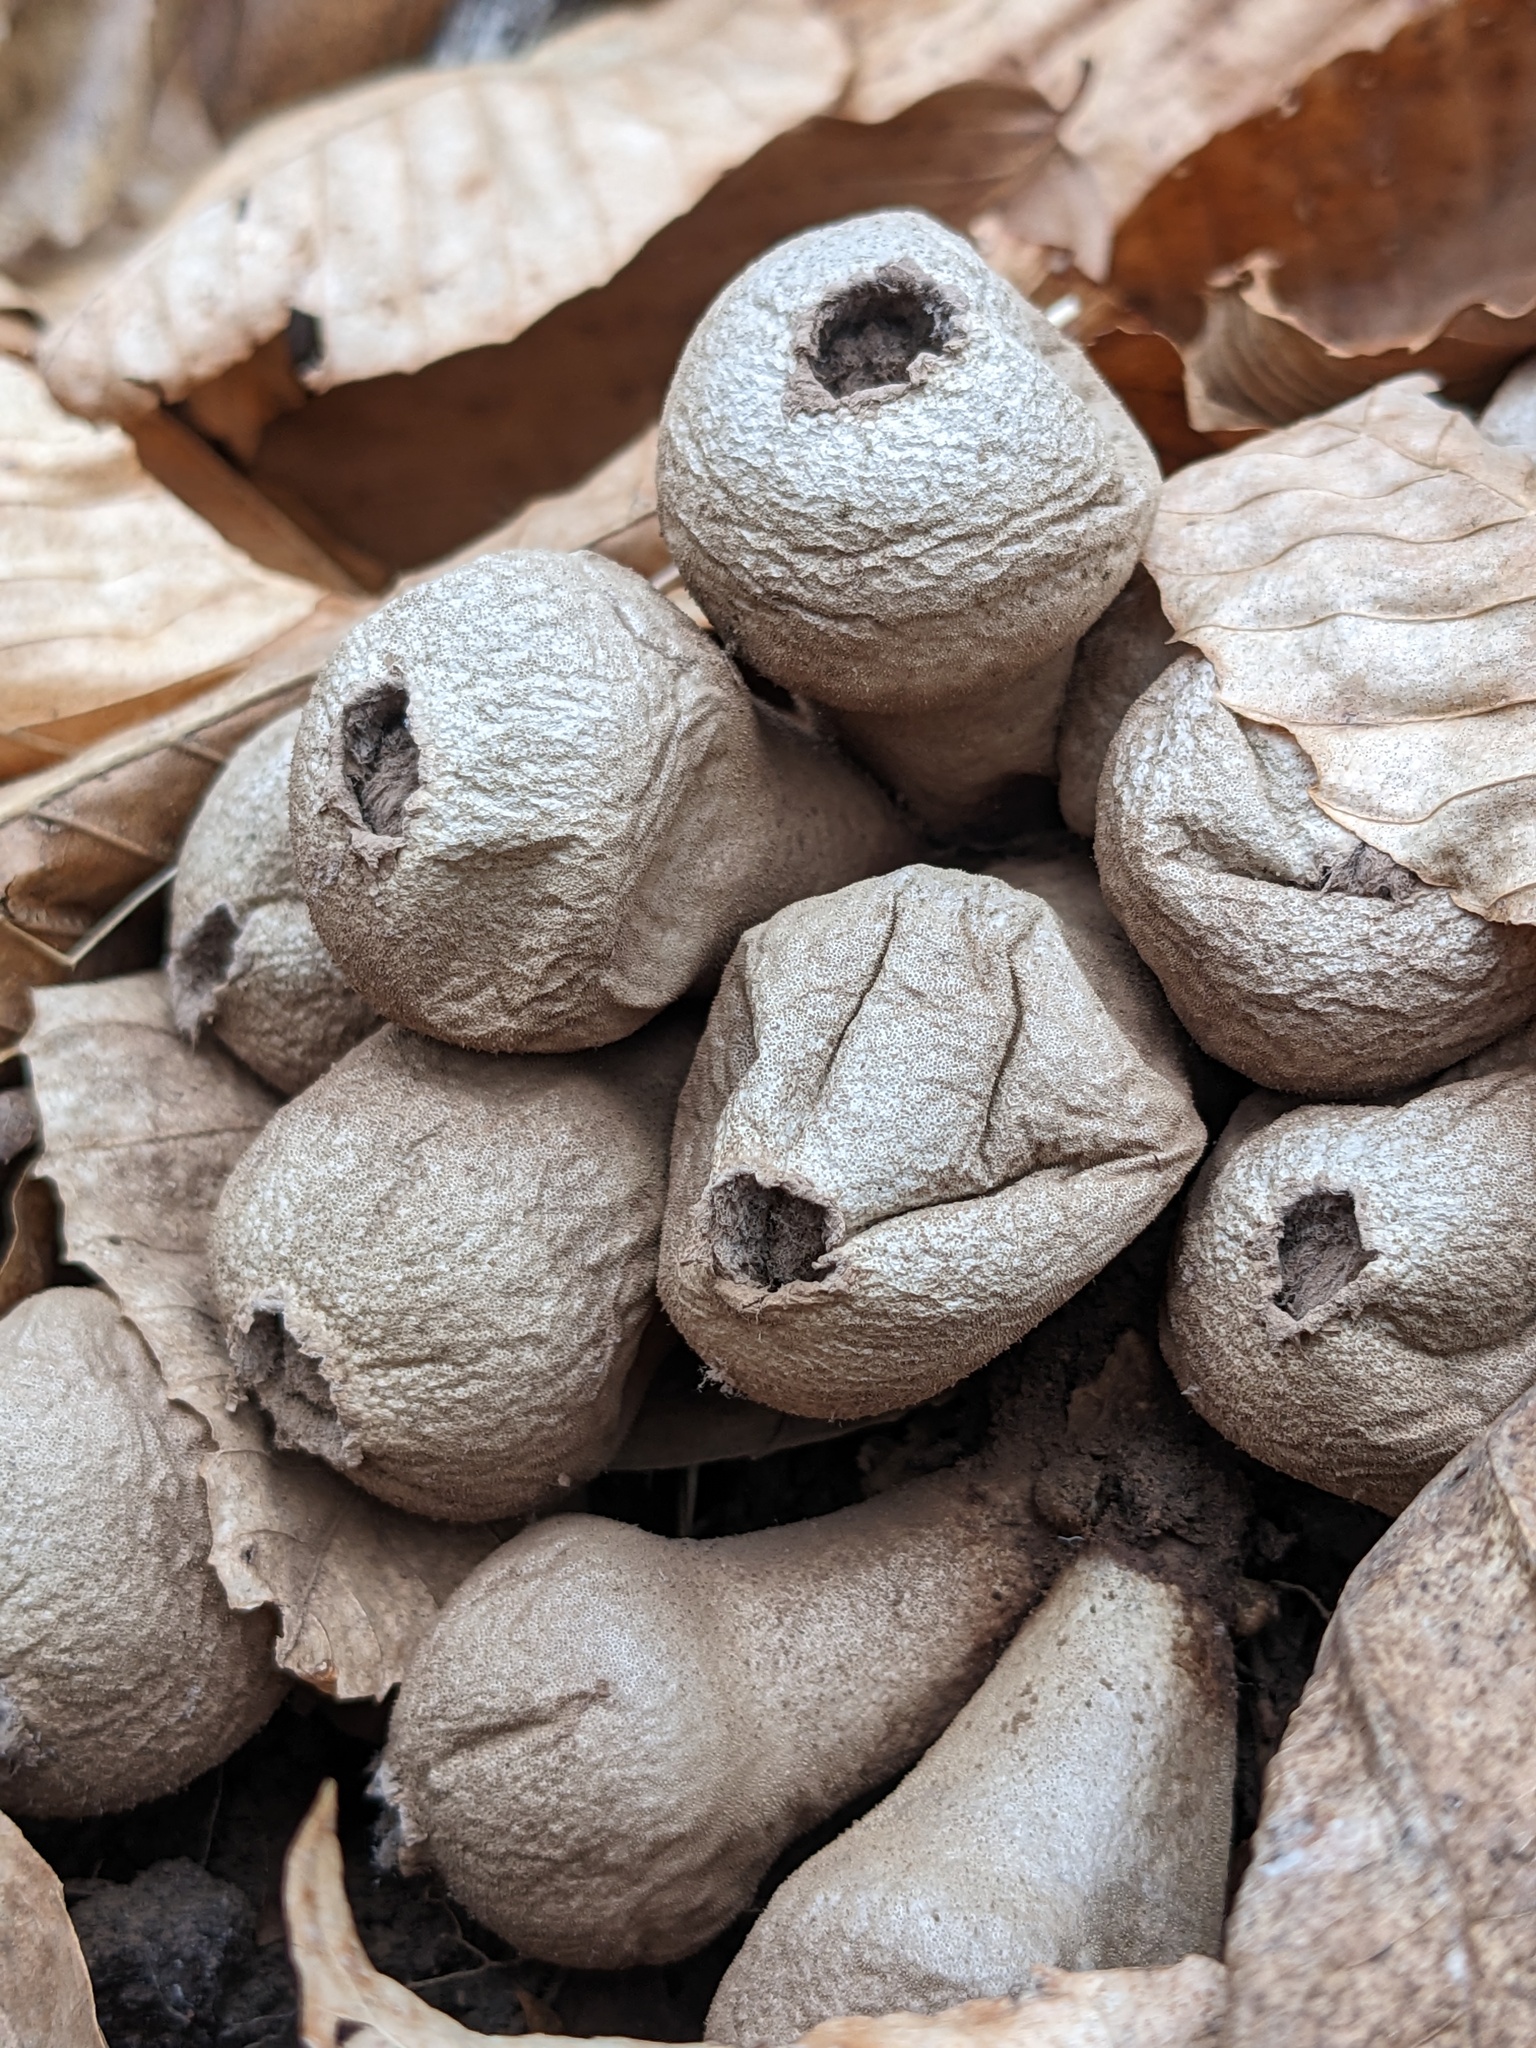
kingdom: Fungi
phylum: Basidiomycota
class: Agaricomycetes
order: Agaricales
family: Lycoperdaceae
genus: Apioperdon
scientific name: Apioperdon pyriforme
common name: Pear-shaped puffball
